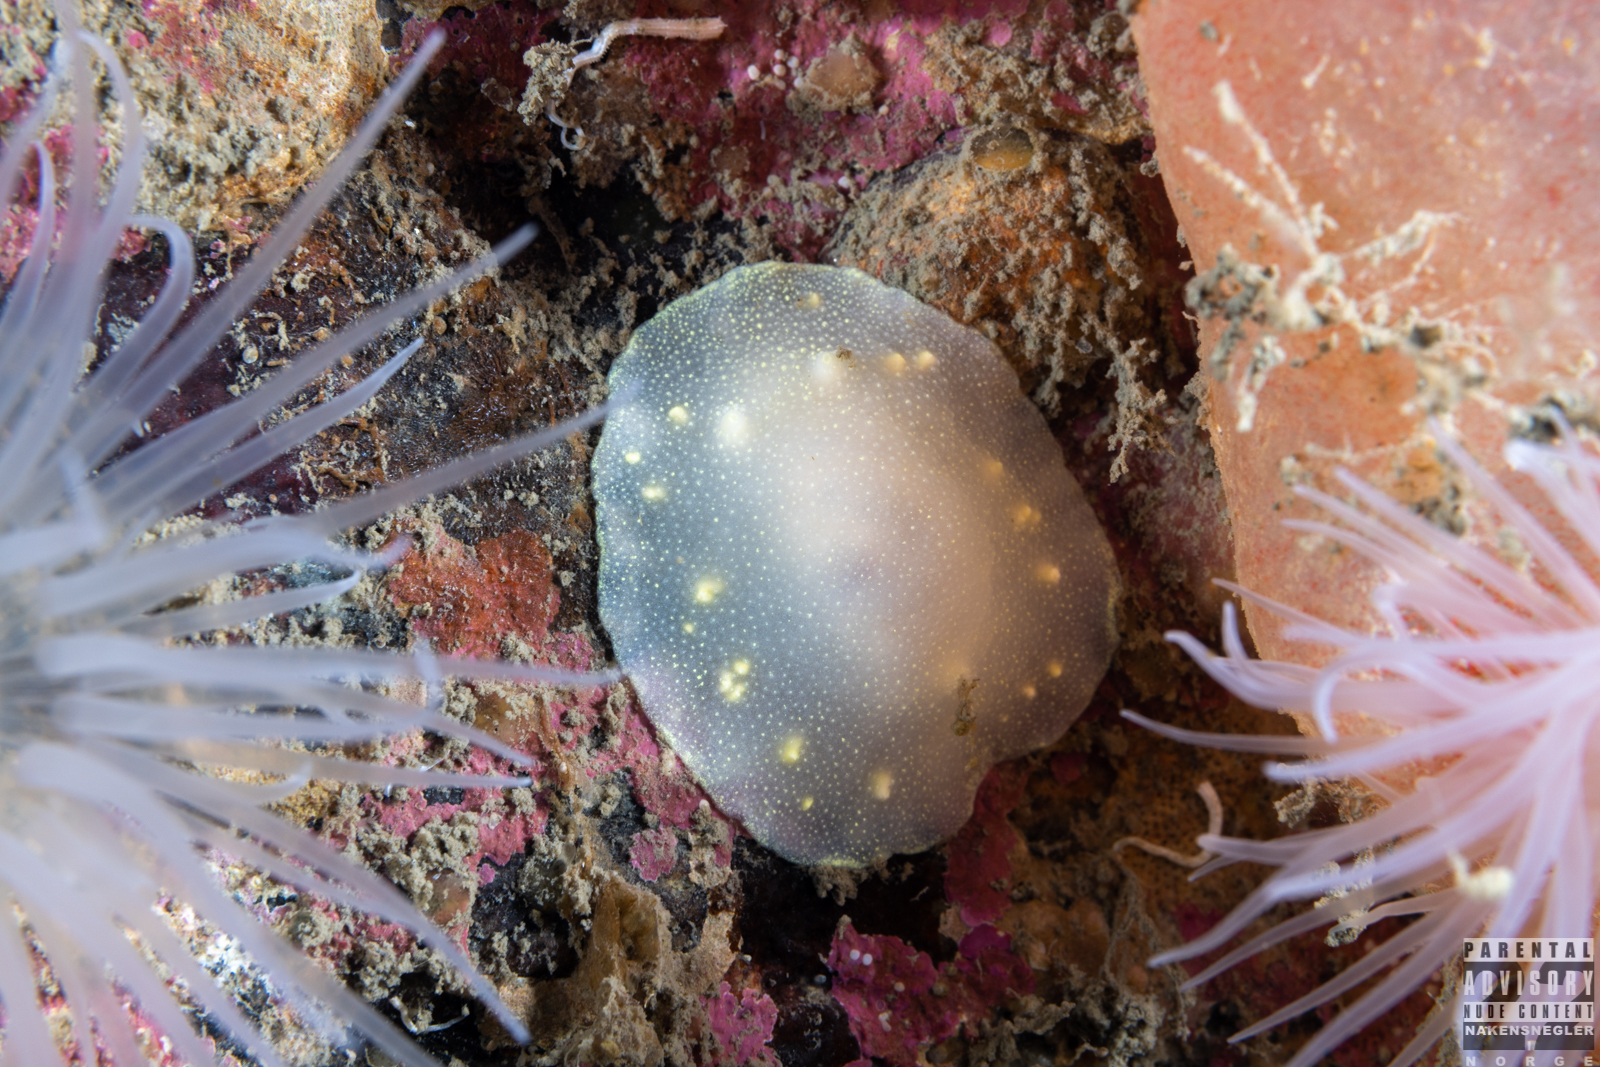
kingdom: Animalia
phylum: Mollusca
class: Gastropoda
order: Nudibranchia
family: Cadlinidae
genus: Cadlina
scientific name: Cadlina laevis
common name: White atlantic cadlina
